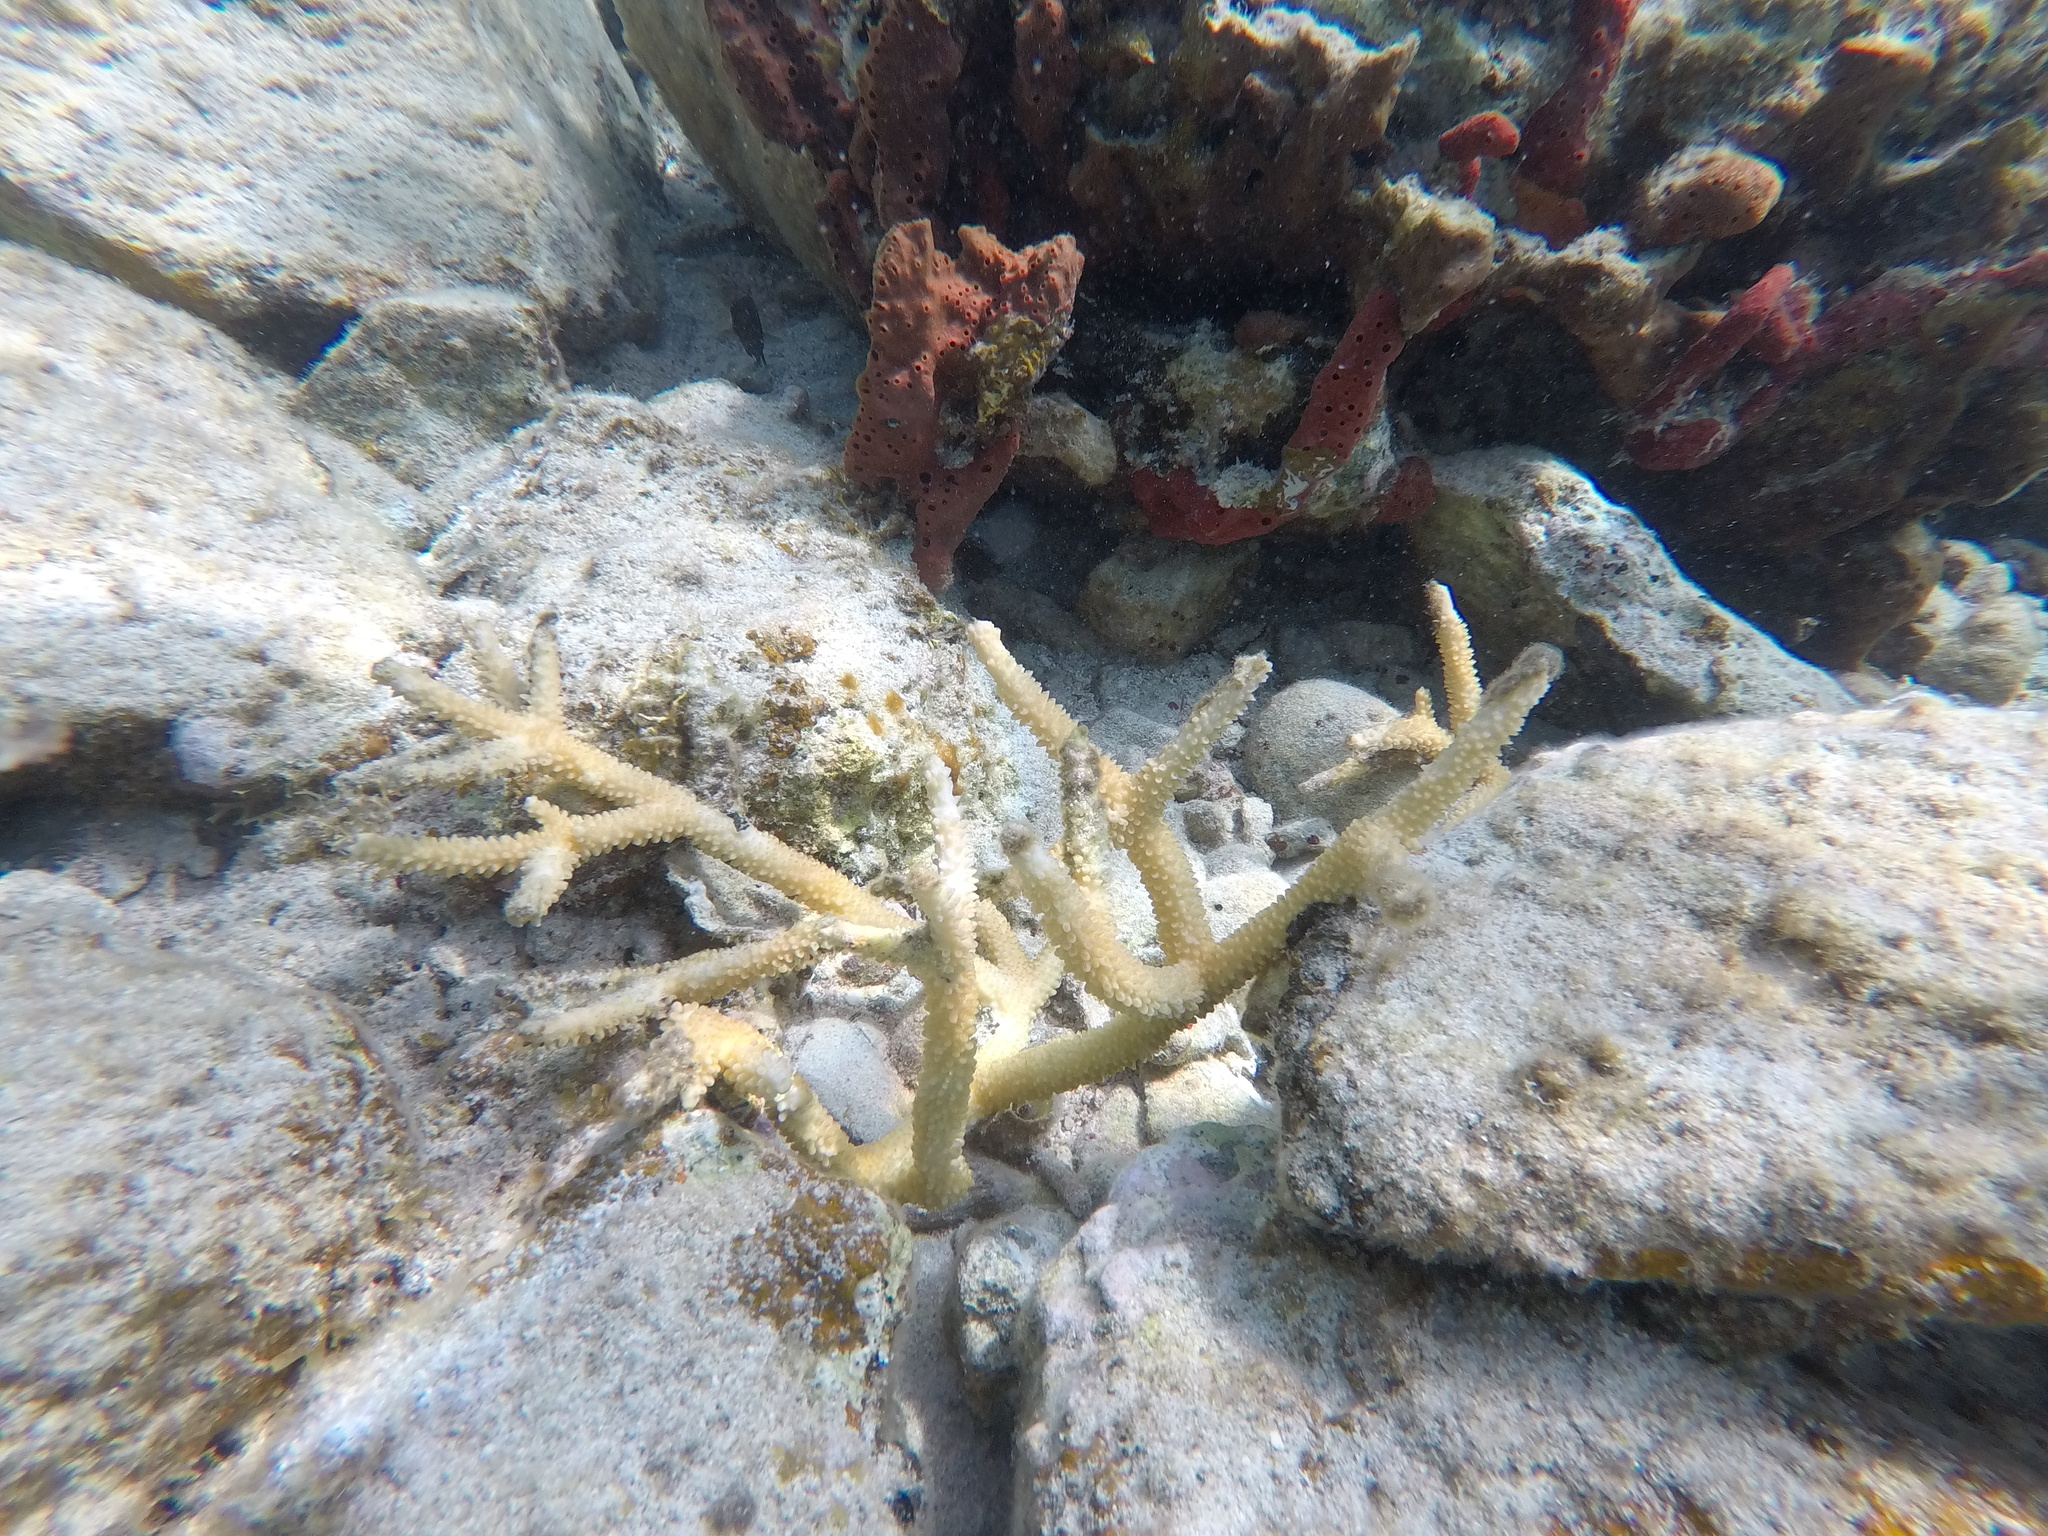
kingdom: Animalia
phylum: Cnidaria
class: Anthozoa
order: Scleractinia
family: Acroporidae
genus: Acropora
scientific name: Acropora cervicornis
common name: Staghorn coral
